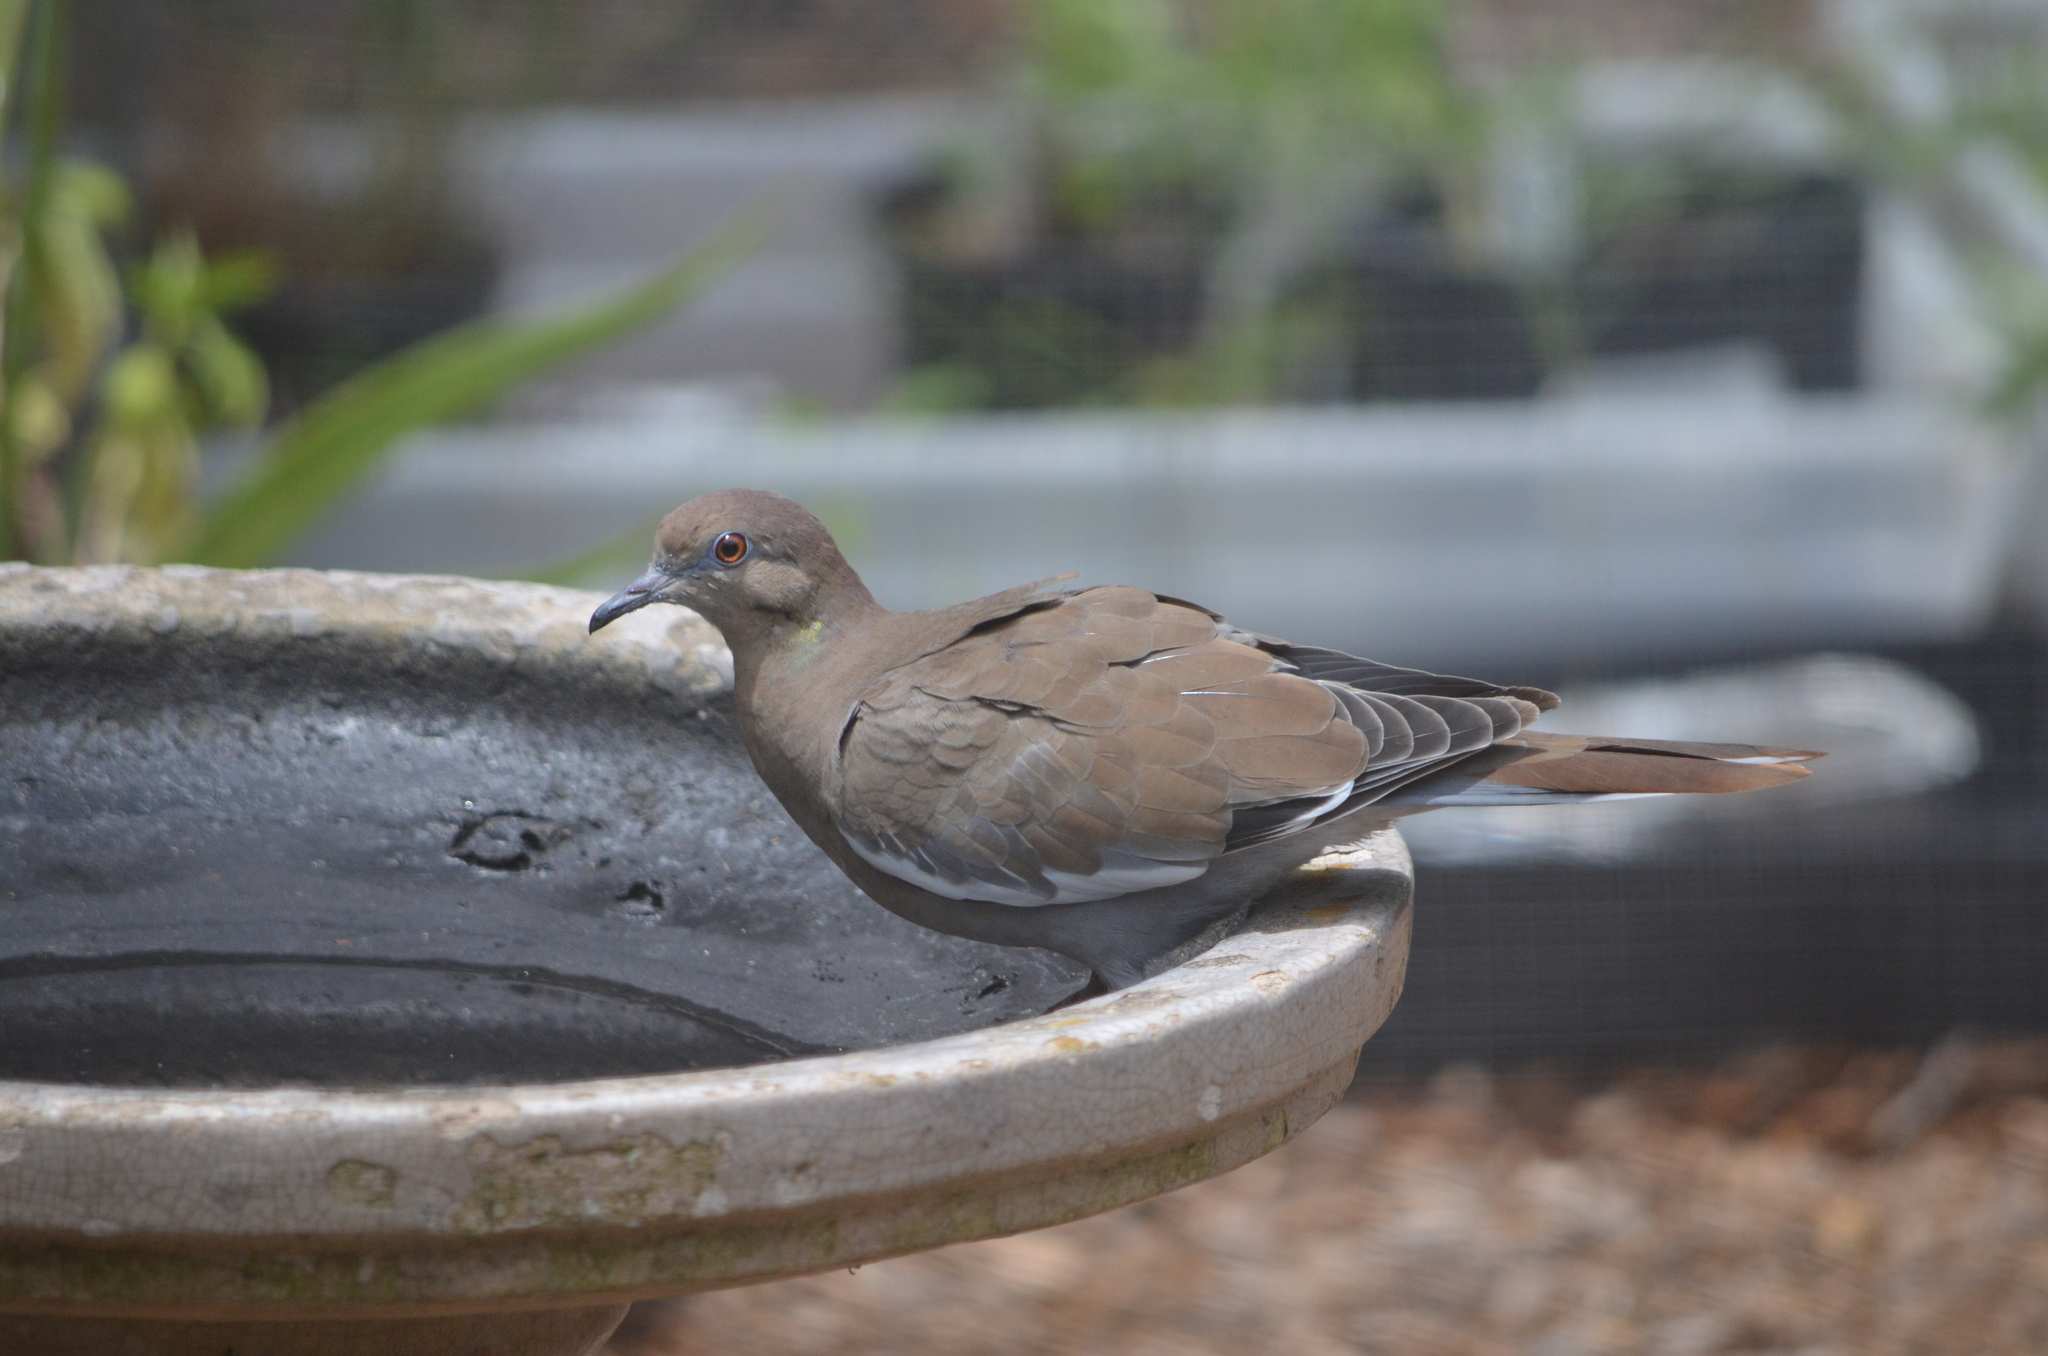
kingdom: Animalia
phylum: Chordata
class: Aves
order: Columbiformes
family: Columbidae
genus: Zenaida
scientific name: Zenaida asiatica
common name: White-winged dove
